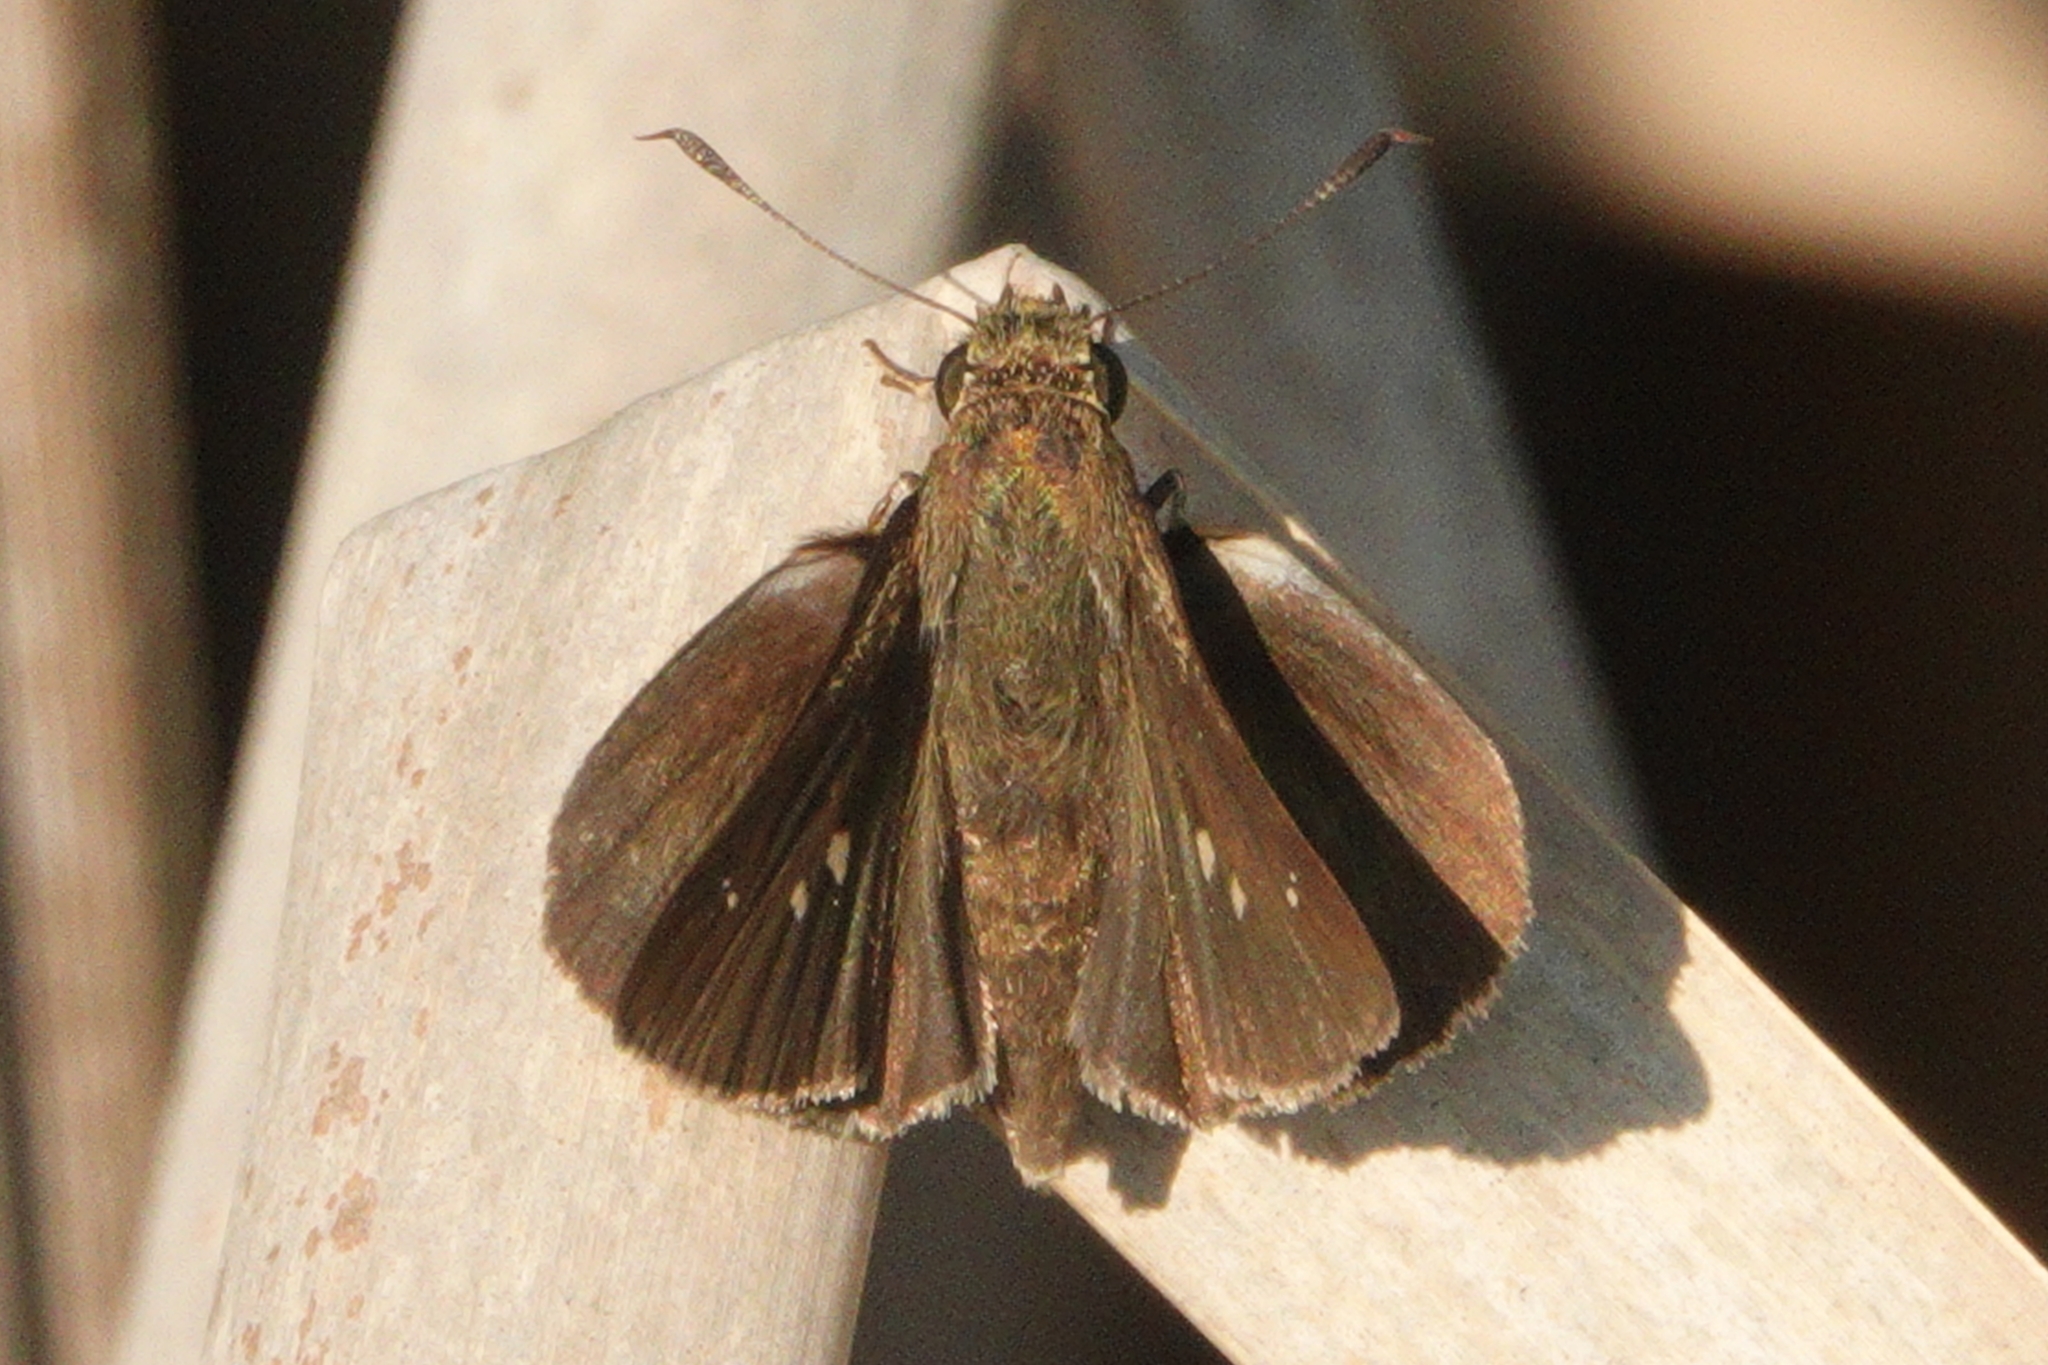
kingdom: Animalia
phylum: Arthropoda
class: Insecta
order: Lepidoptera
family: Hesperiidae
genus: Oligoria
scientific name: Oligoria maculata
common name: Twin-spot skipper
